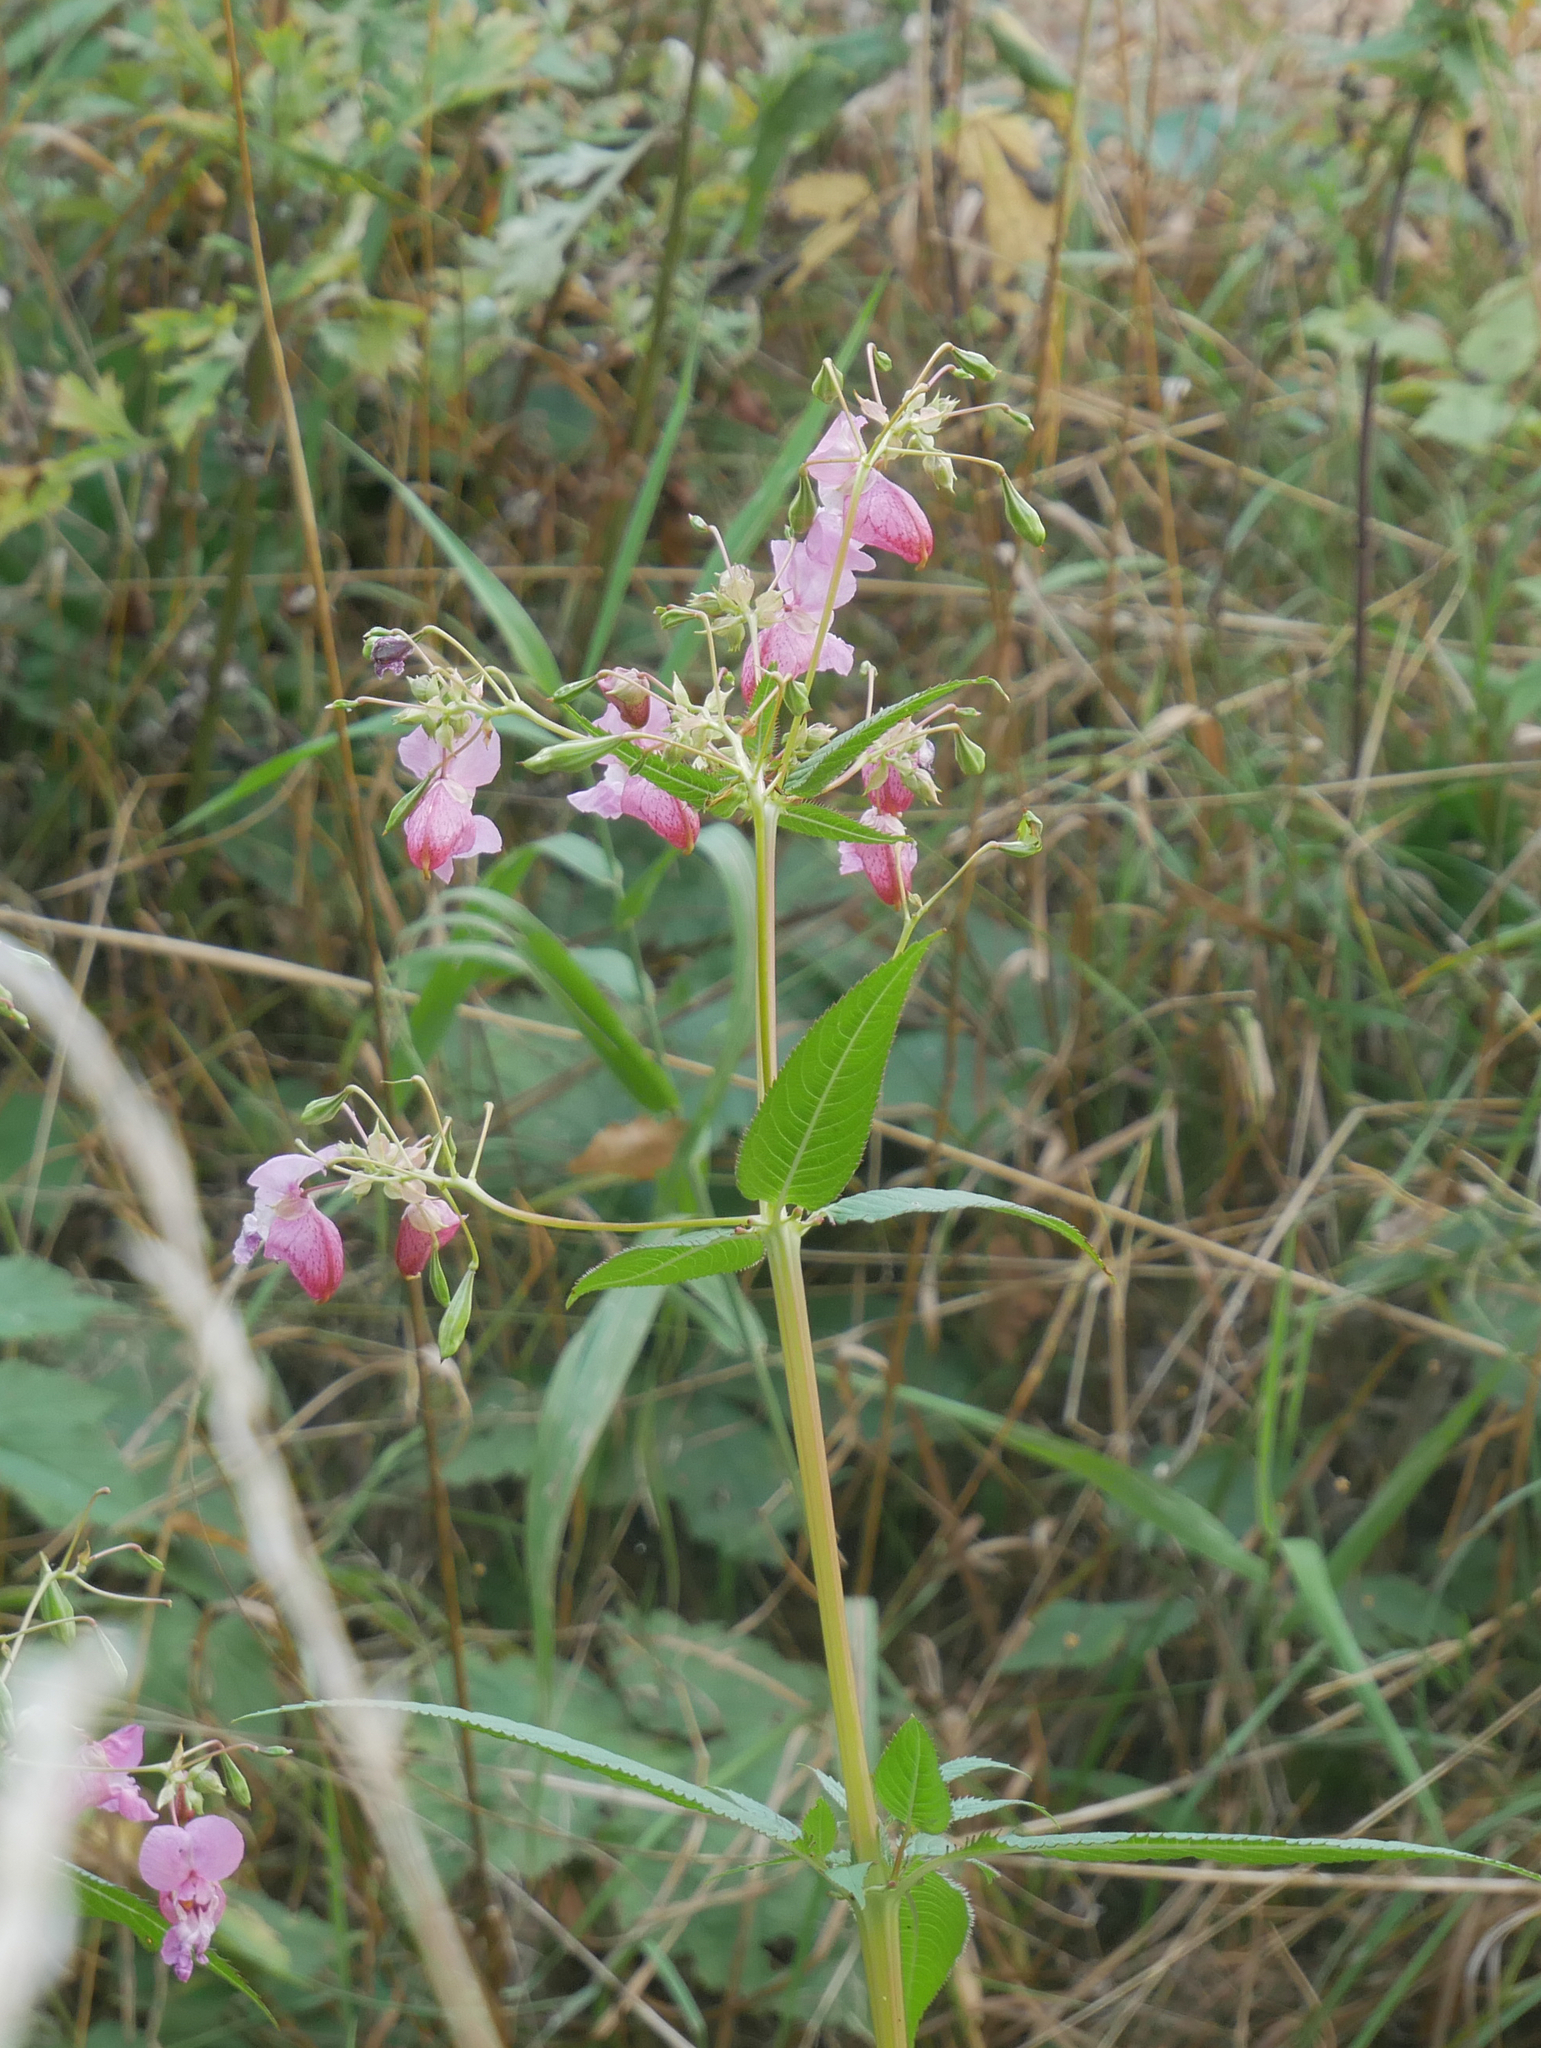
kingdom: Plantae
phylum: Tracheophyta
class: Magnoliopsida
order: Ericales
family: Balsaminaceae
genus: Impatiens
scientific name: Impatiens glandulifera
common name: Himalayan balsam
